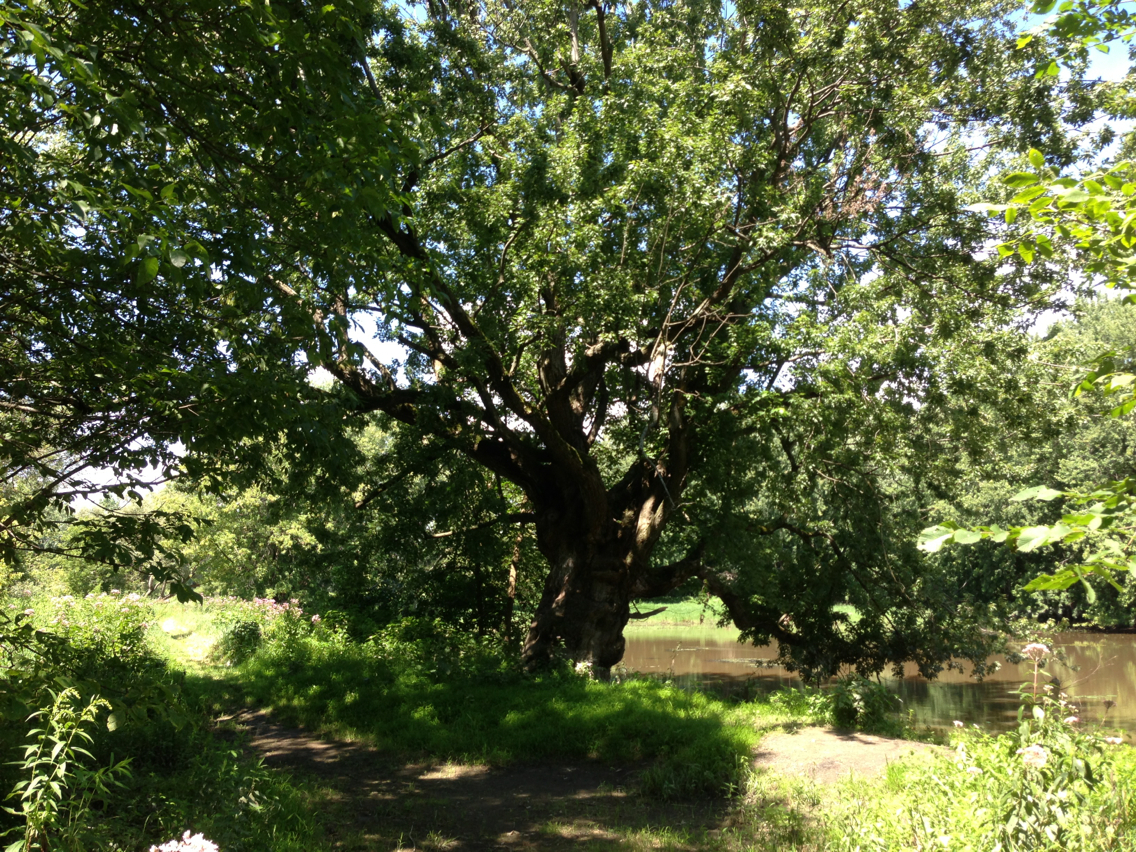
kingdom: Plantae
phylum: Tracheophyta
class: Magnoliopsida
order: Sapindales
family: Sapindaceae
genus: Acer
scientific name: Acer saccharinum
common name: Silver maple
